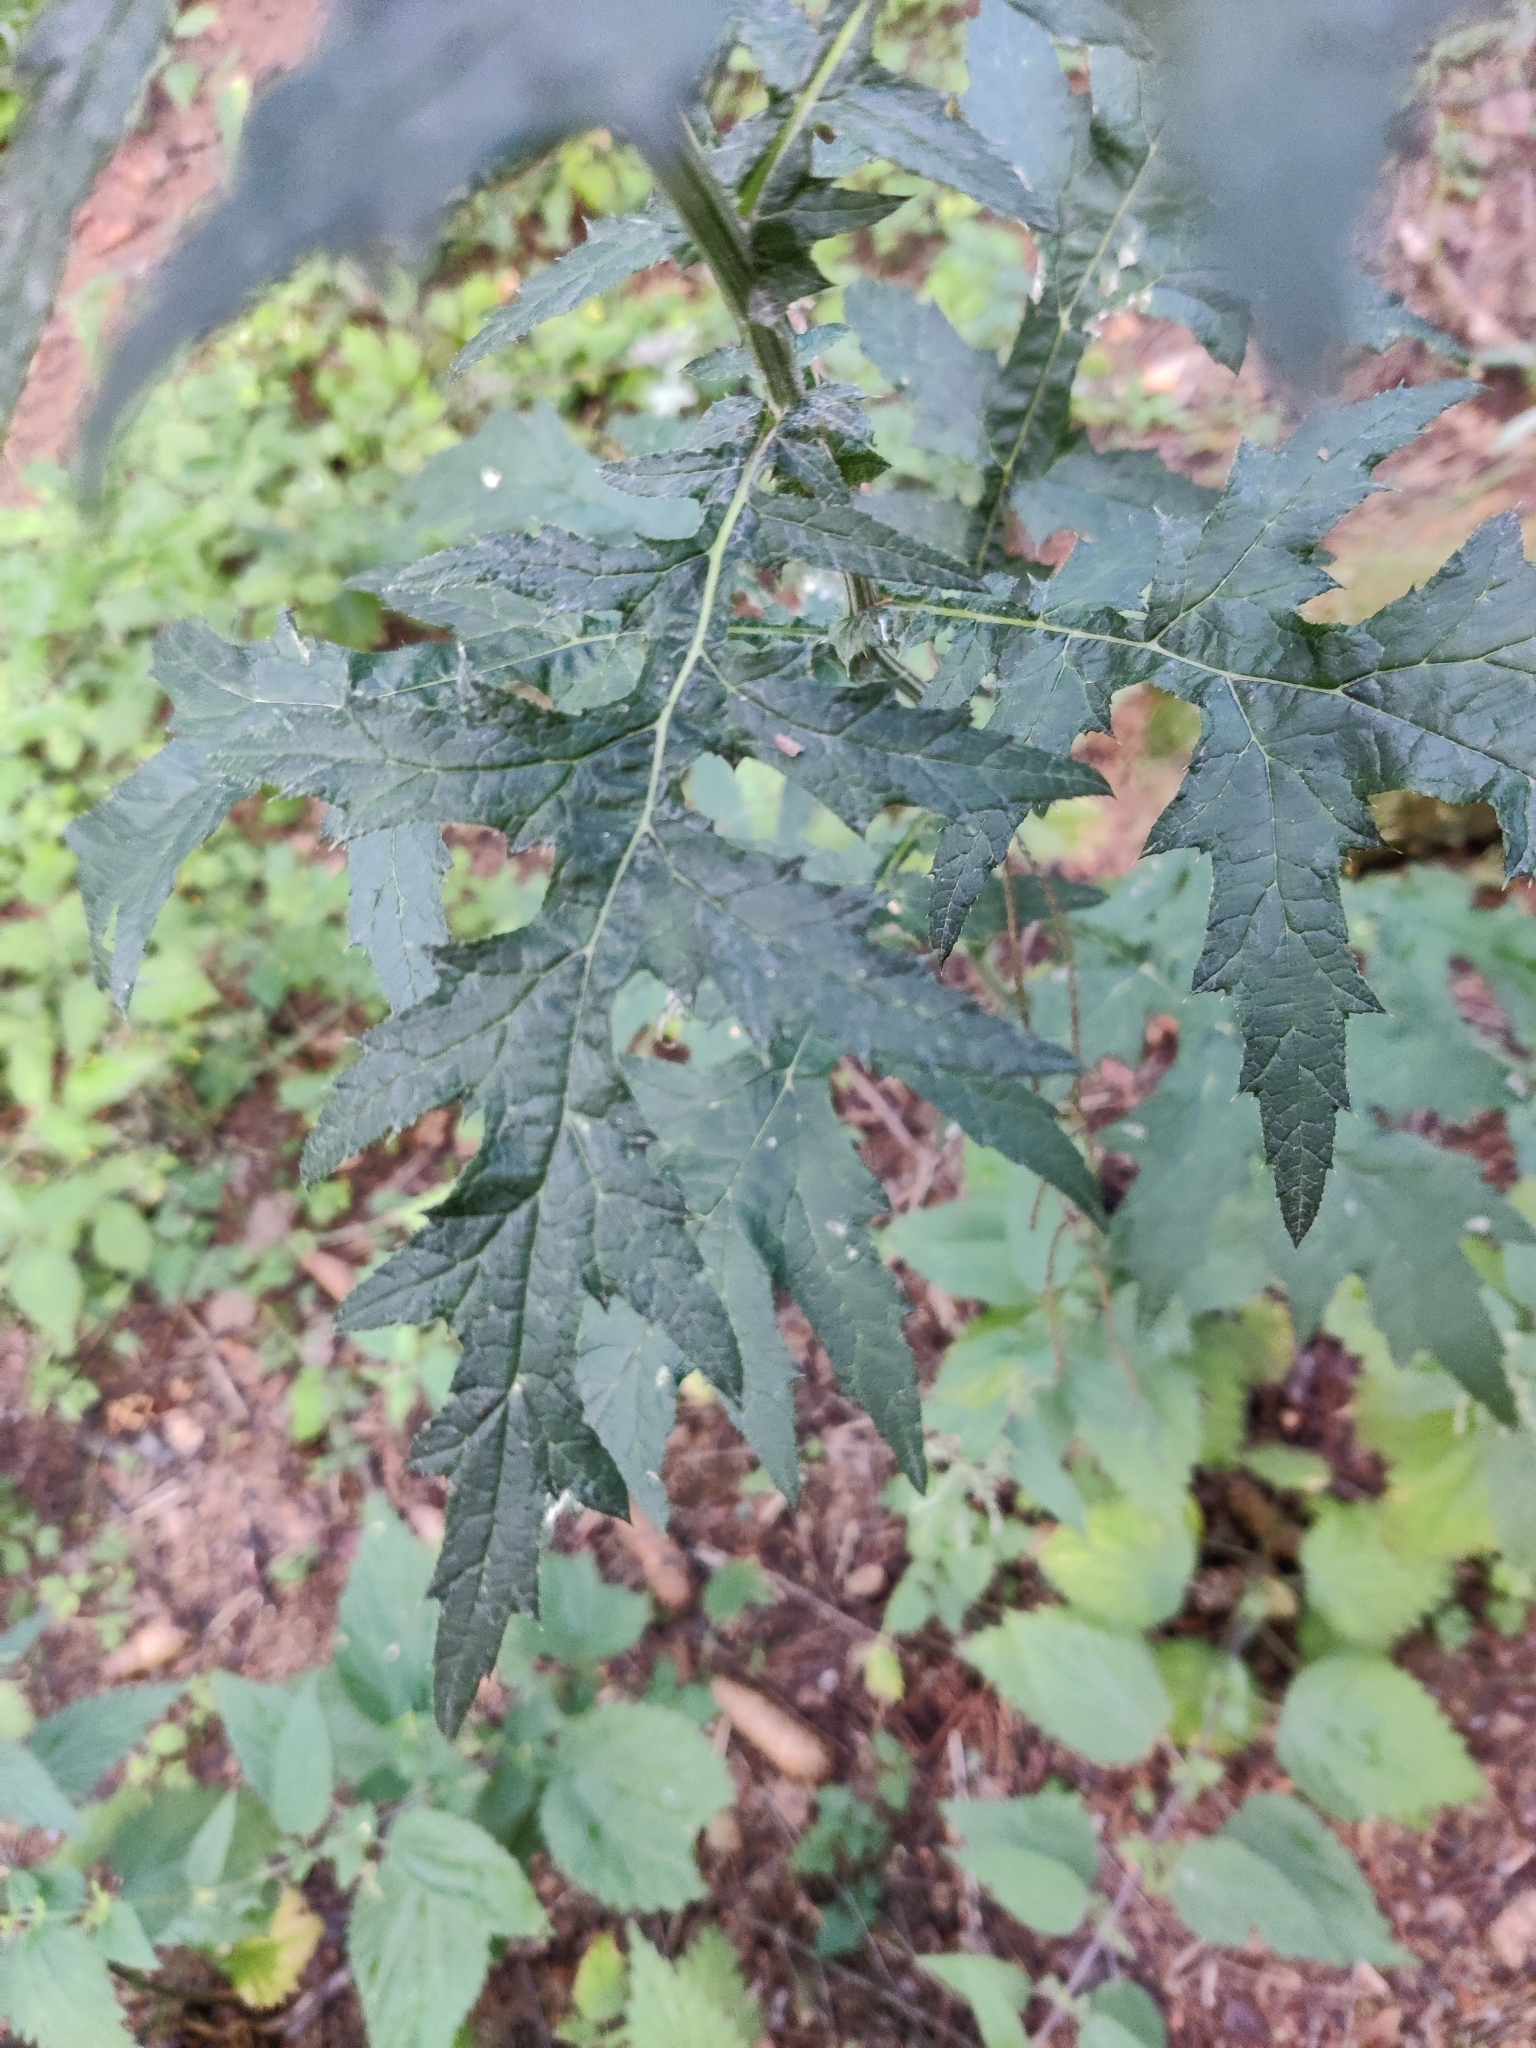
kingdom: Plantae
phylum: Tracheophyta
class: Magnoliopsida
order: Asterales
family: Asteraceae
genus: Echinops
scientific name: Echinops exaltatus
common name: Globe-thistle
